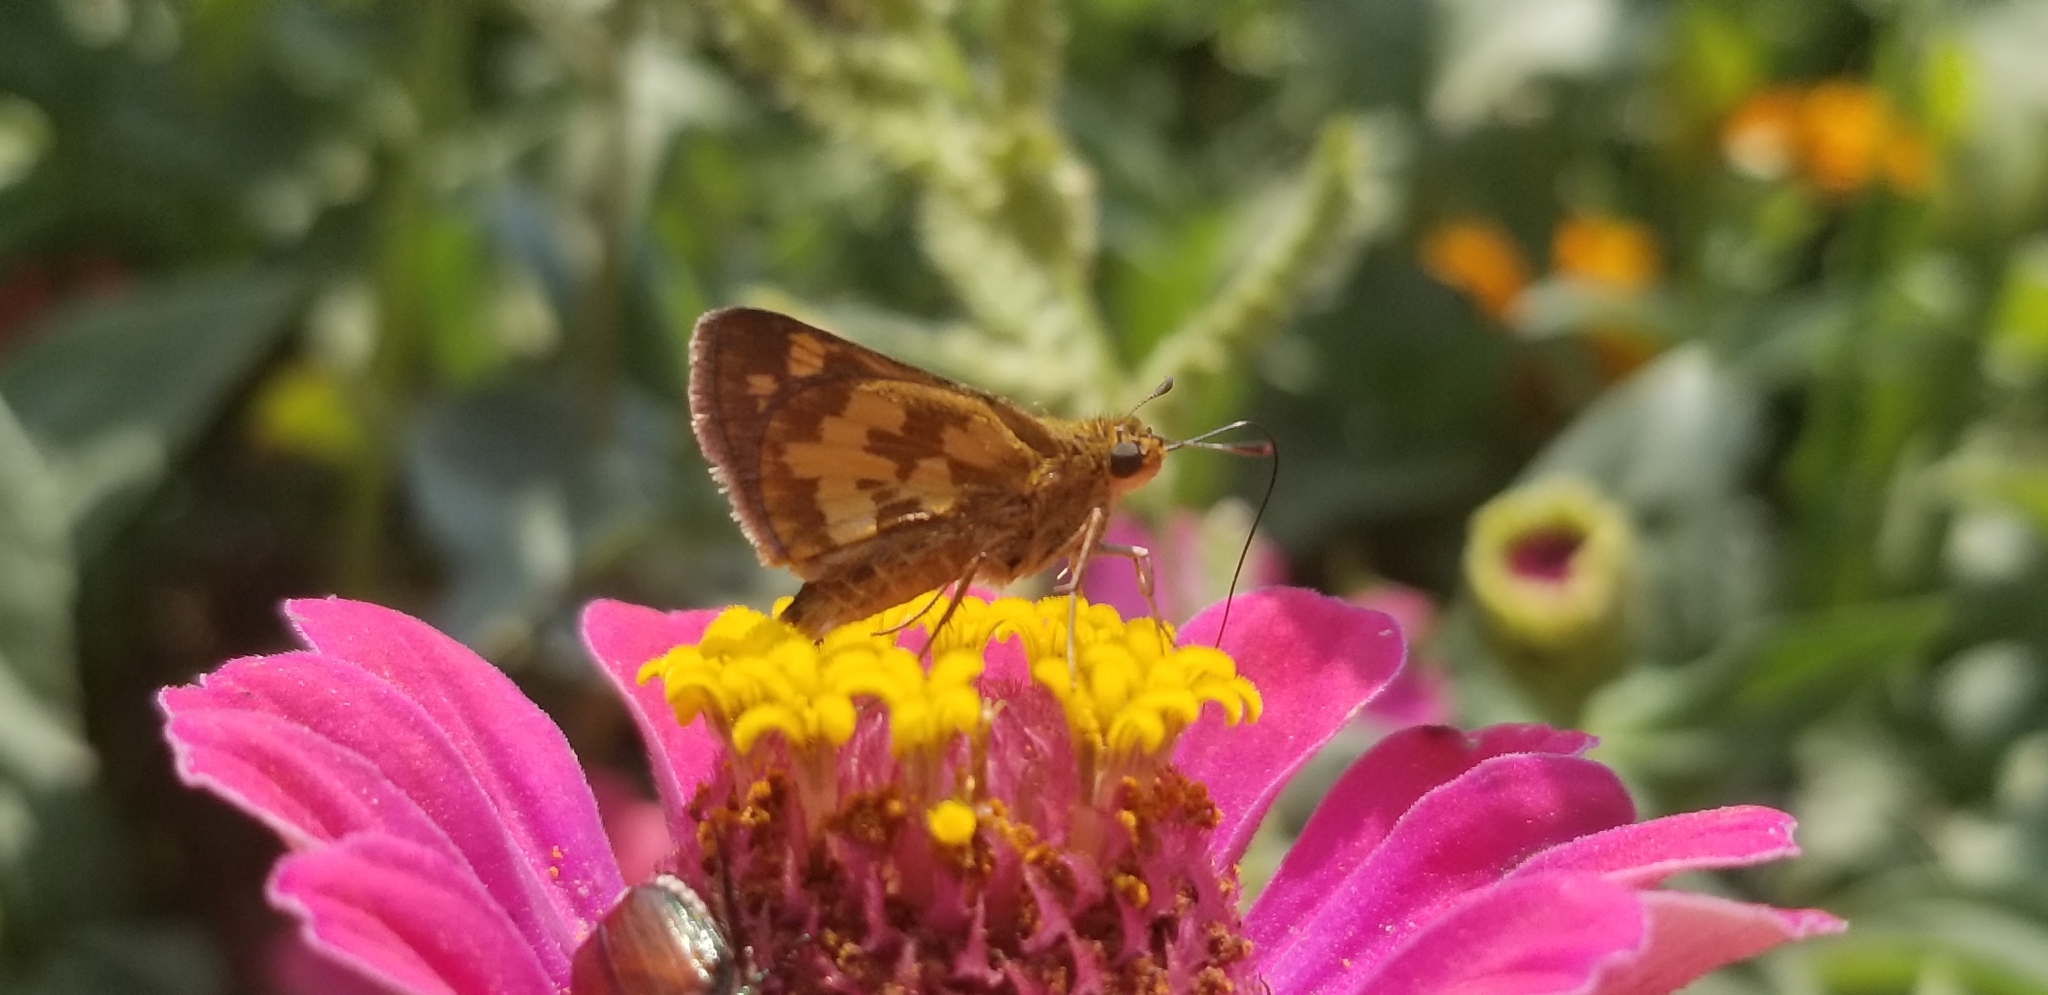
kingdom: Animalia
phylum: Arthropoda
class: Insecta
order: Lepidoptera
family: Hesperiidae
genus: Polites
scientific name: Polites coras
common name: Peck's skipper
